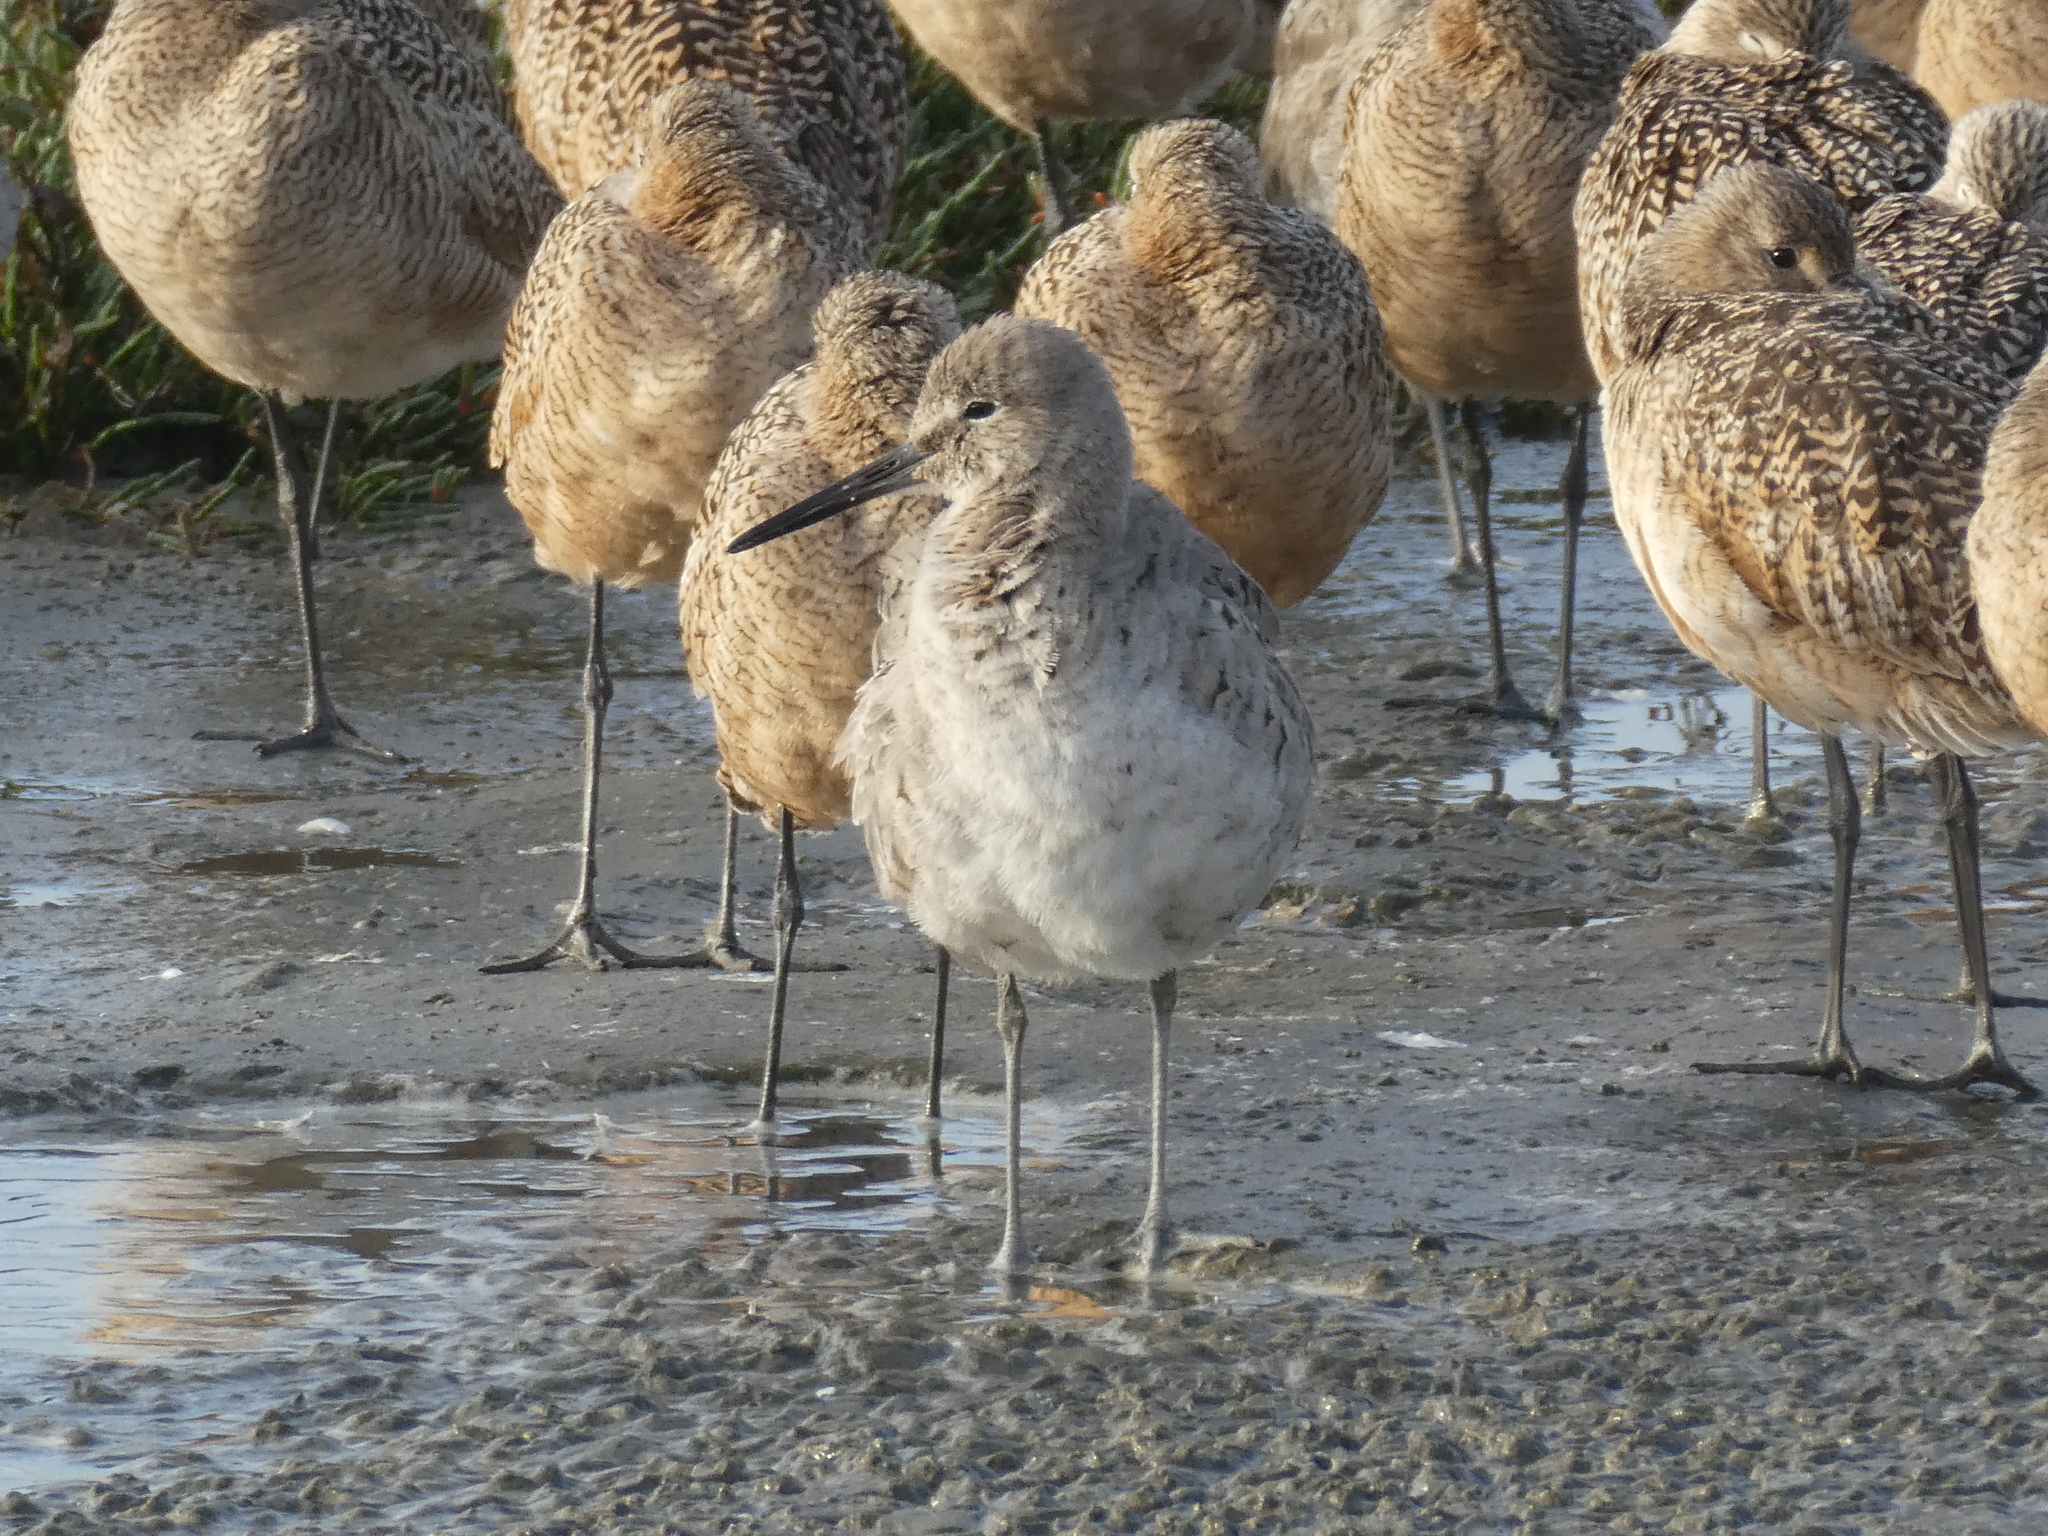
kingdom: Animalia
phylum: Chordata
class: Aves
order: Charadriiformes
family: Scolopacidae
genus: Tringa
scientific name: Tringa semipalmata
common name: Willet
